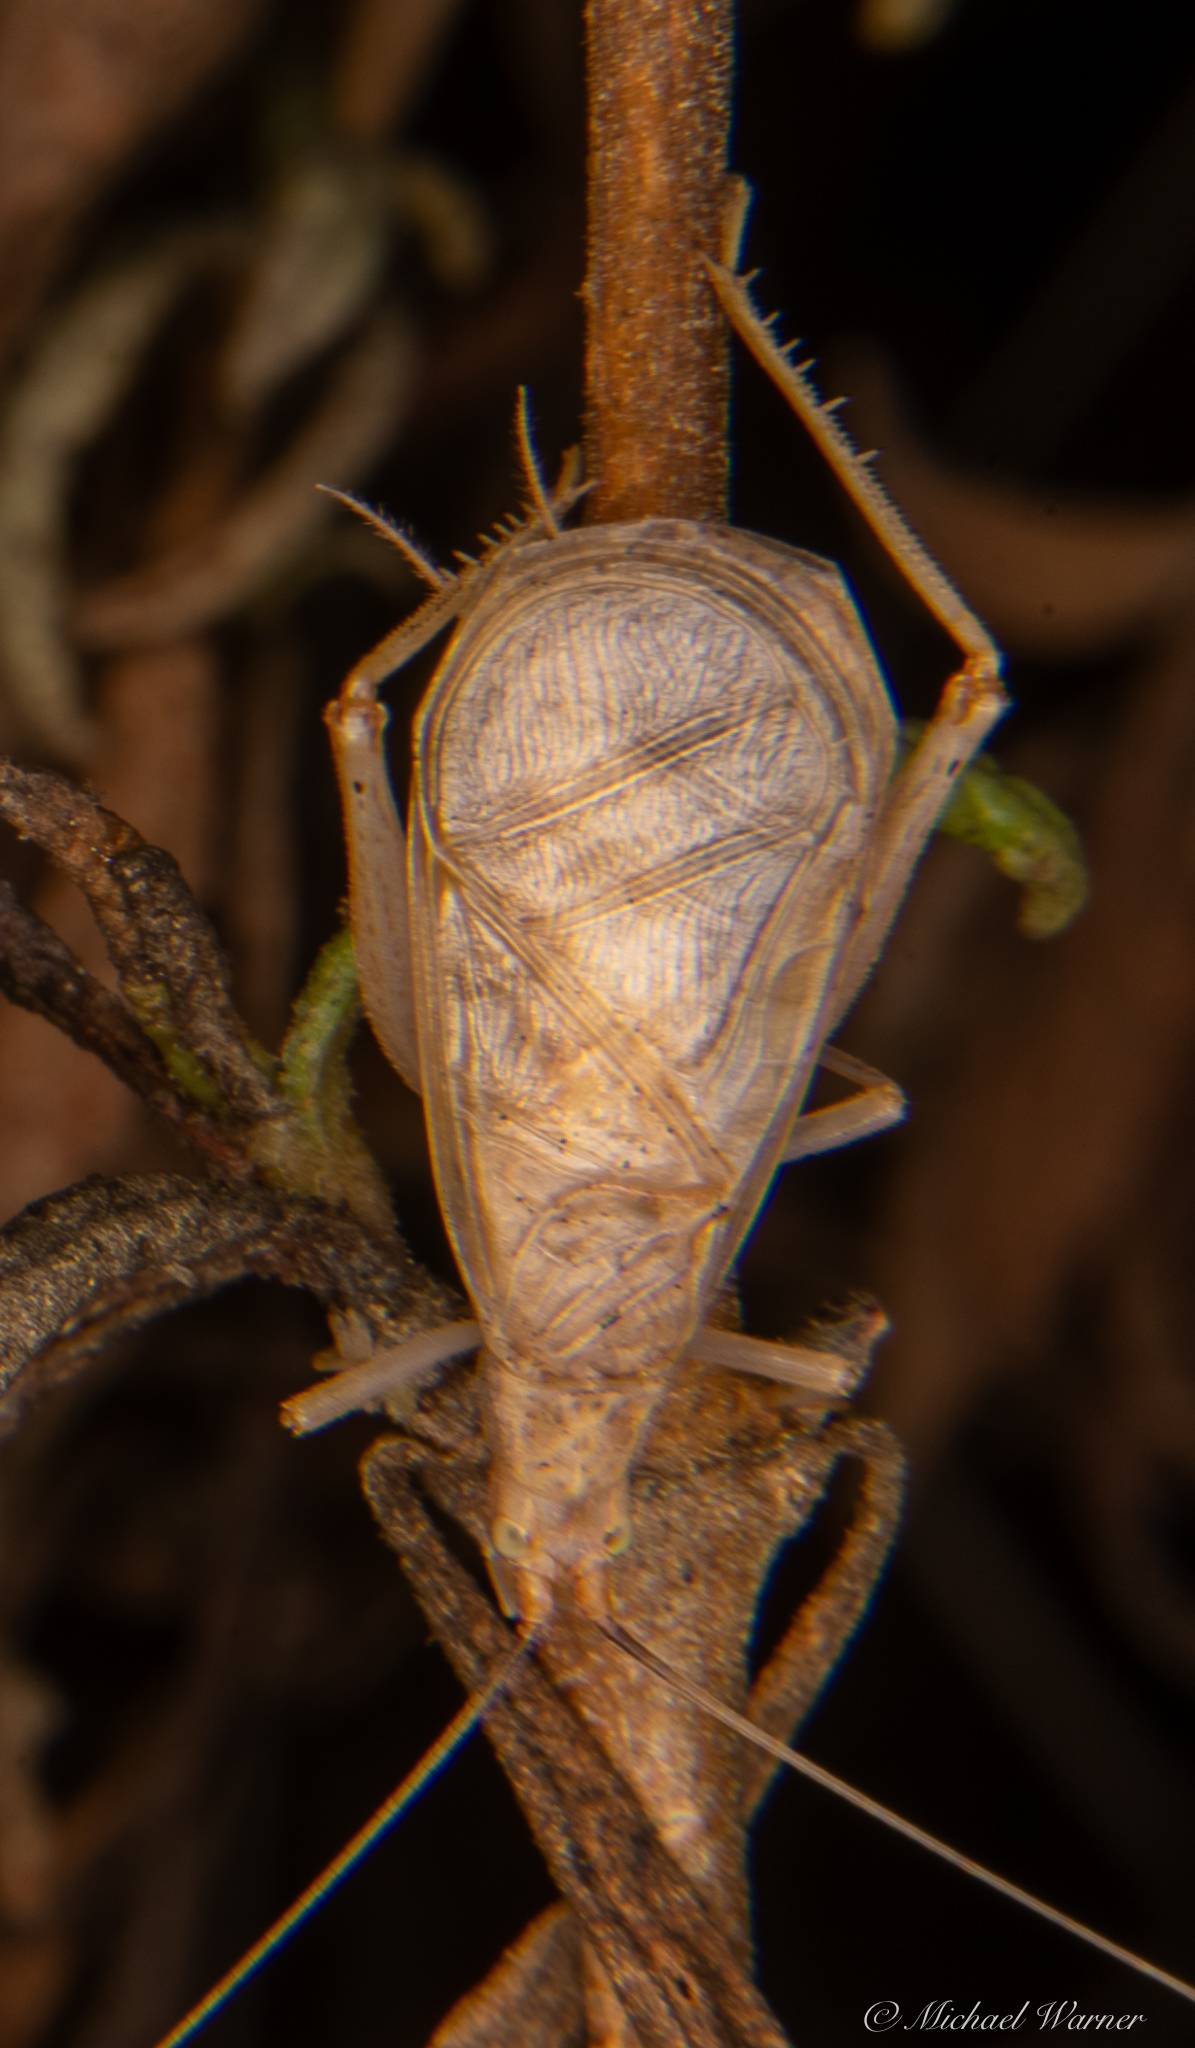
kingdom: Animalia
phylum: Arthropoda
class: Insecta
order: Orthoptera
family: Gryllidae
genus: Oecanthus
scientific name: Oecanthus californicus
